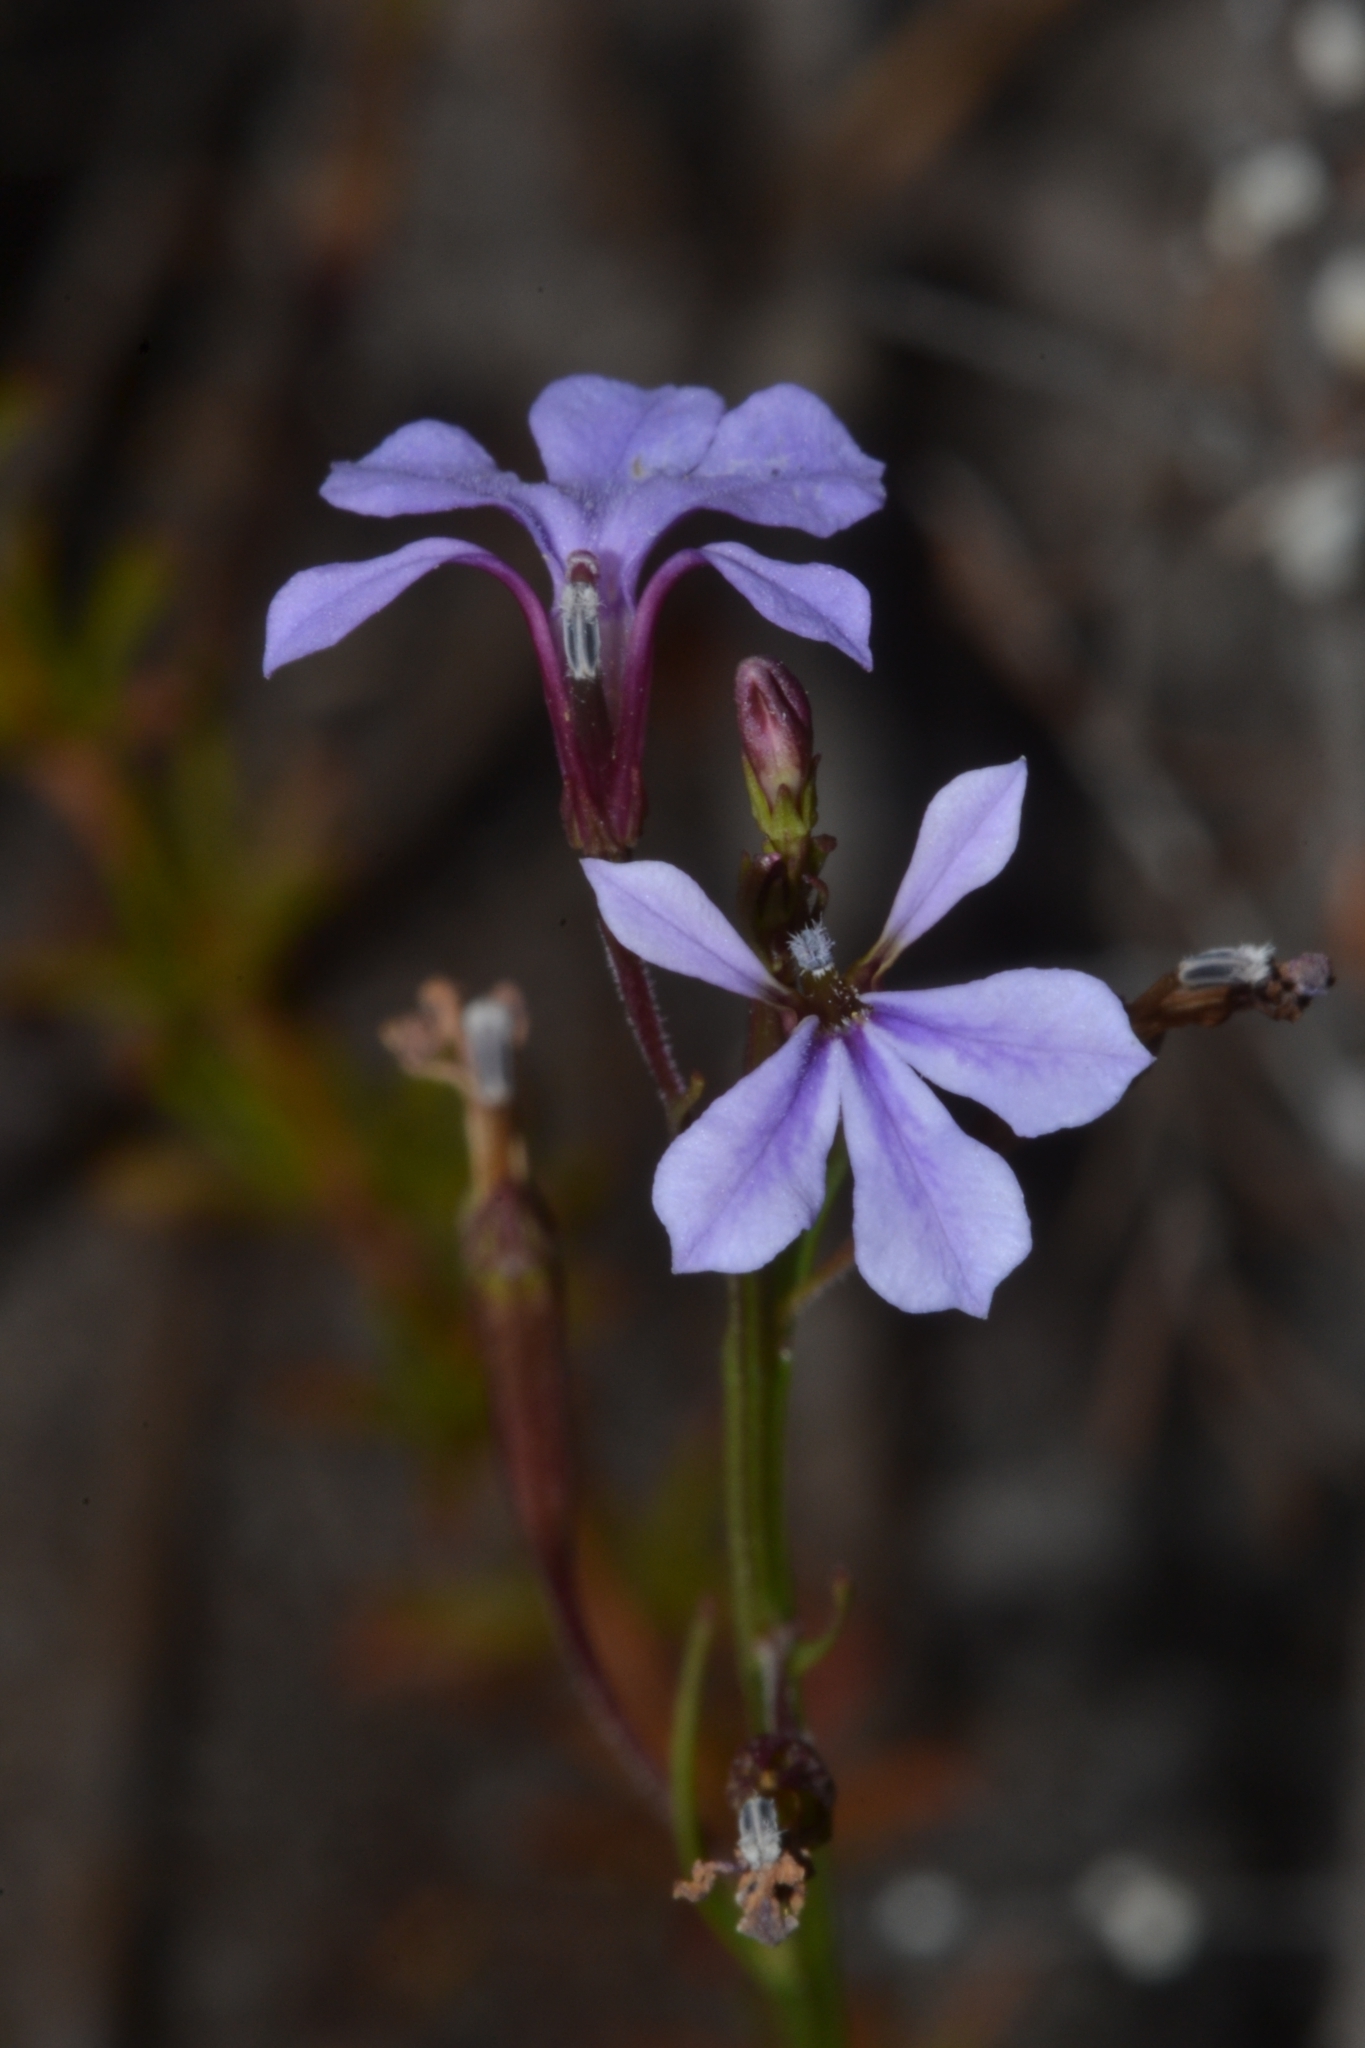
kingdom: Plantae
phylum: Tracheophyta
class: Magnoliopsida
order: Asterales
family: Campanulaceae
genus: Lobelia
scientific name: Lobelia anceps
